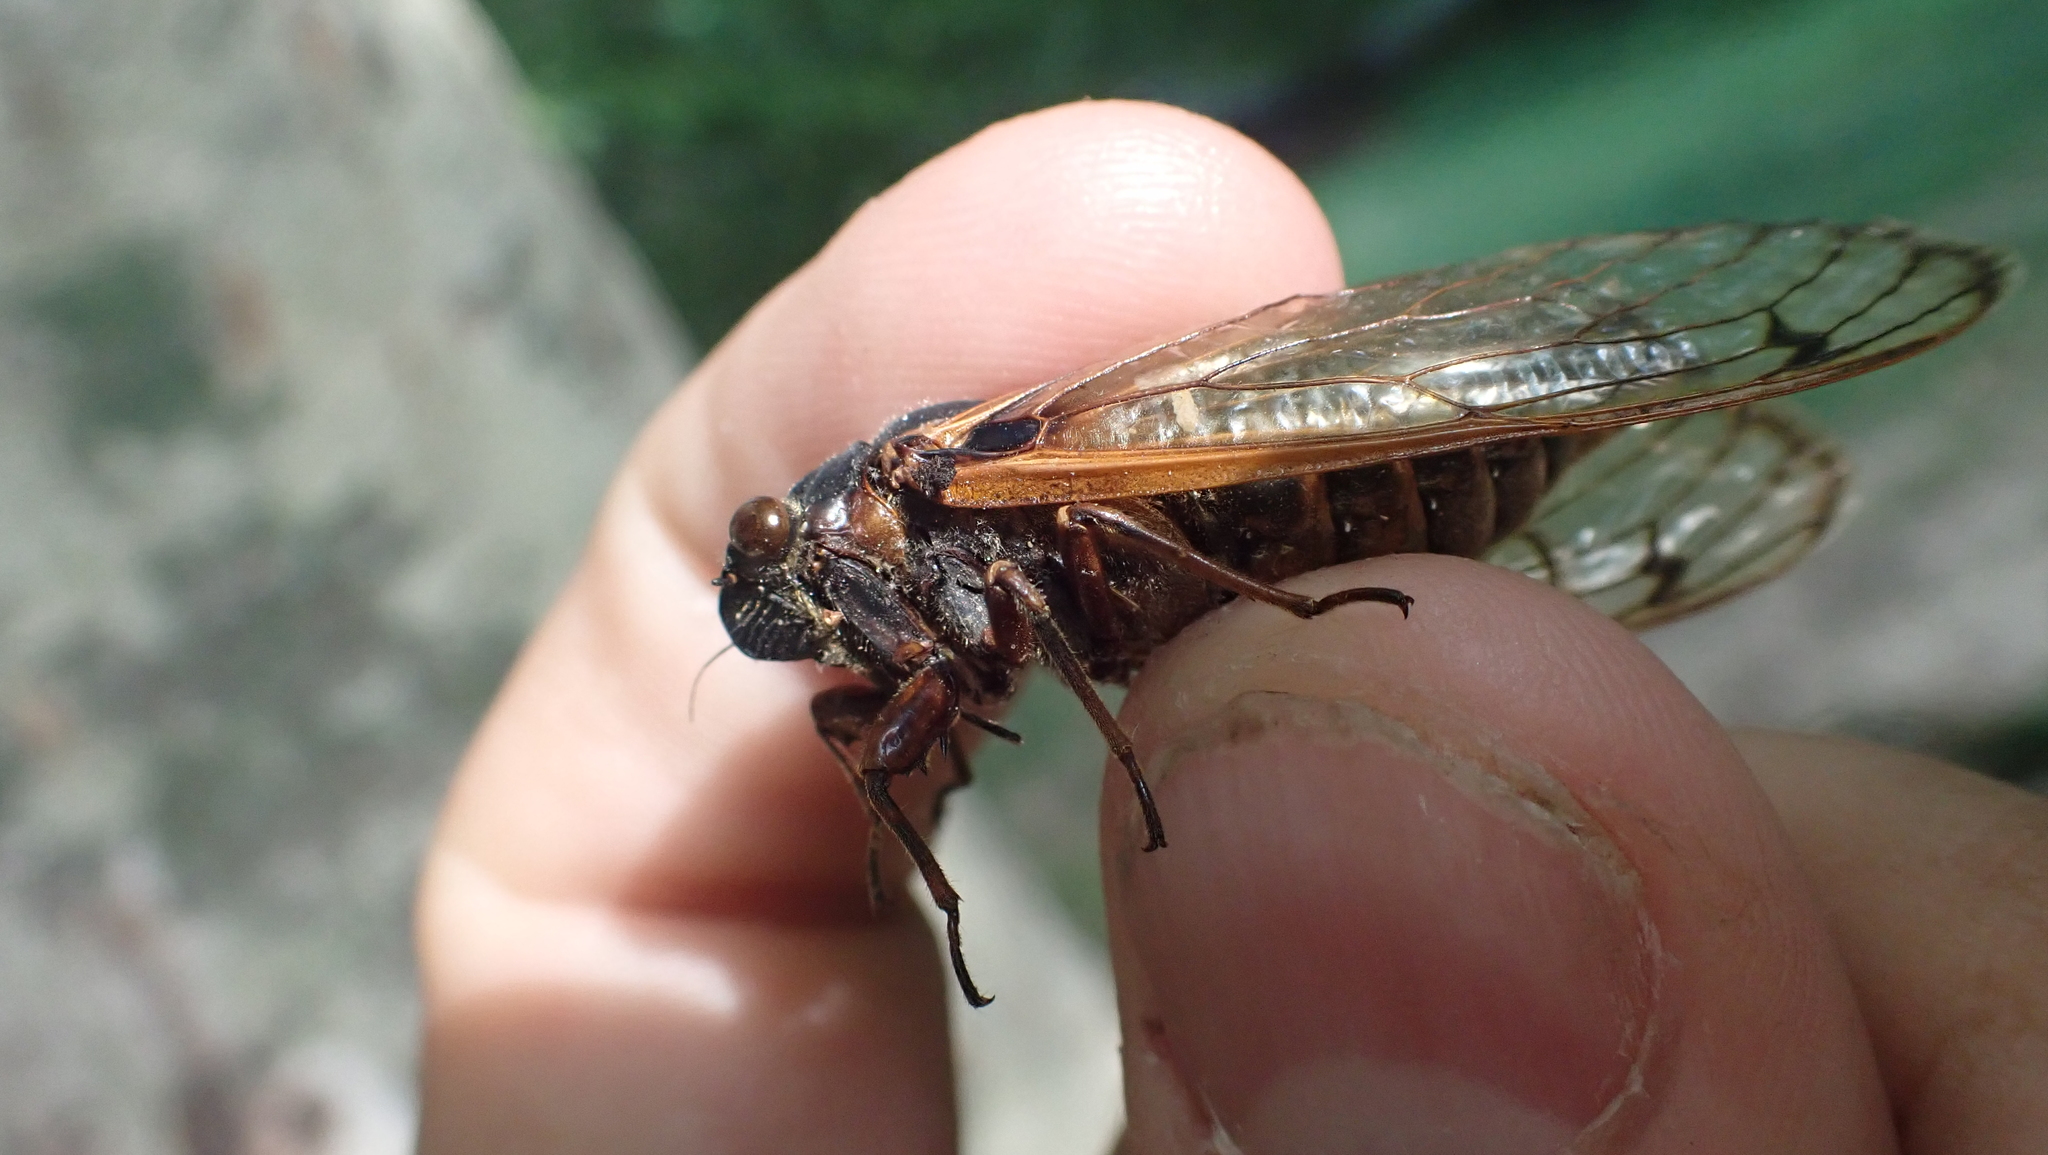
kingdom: Animalia
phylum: Arthropoda
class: Insecta
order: Hemiptera
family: Cicadidae
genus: Magicicada
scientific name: Magicicada septendecim
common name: Periodical cicada
